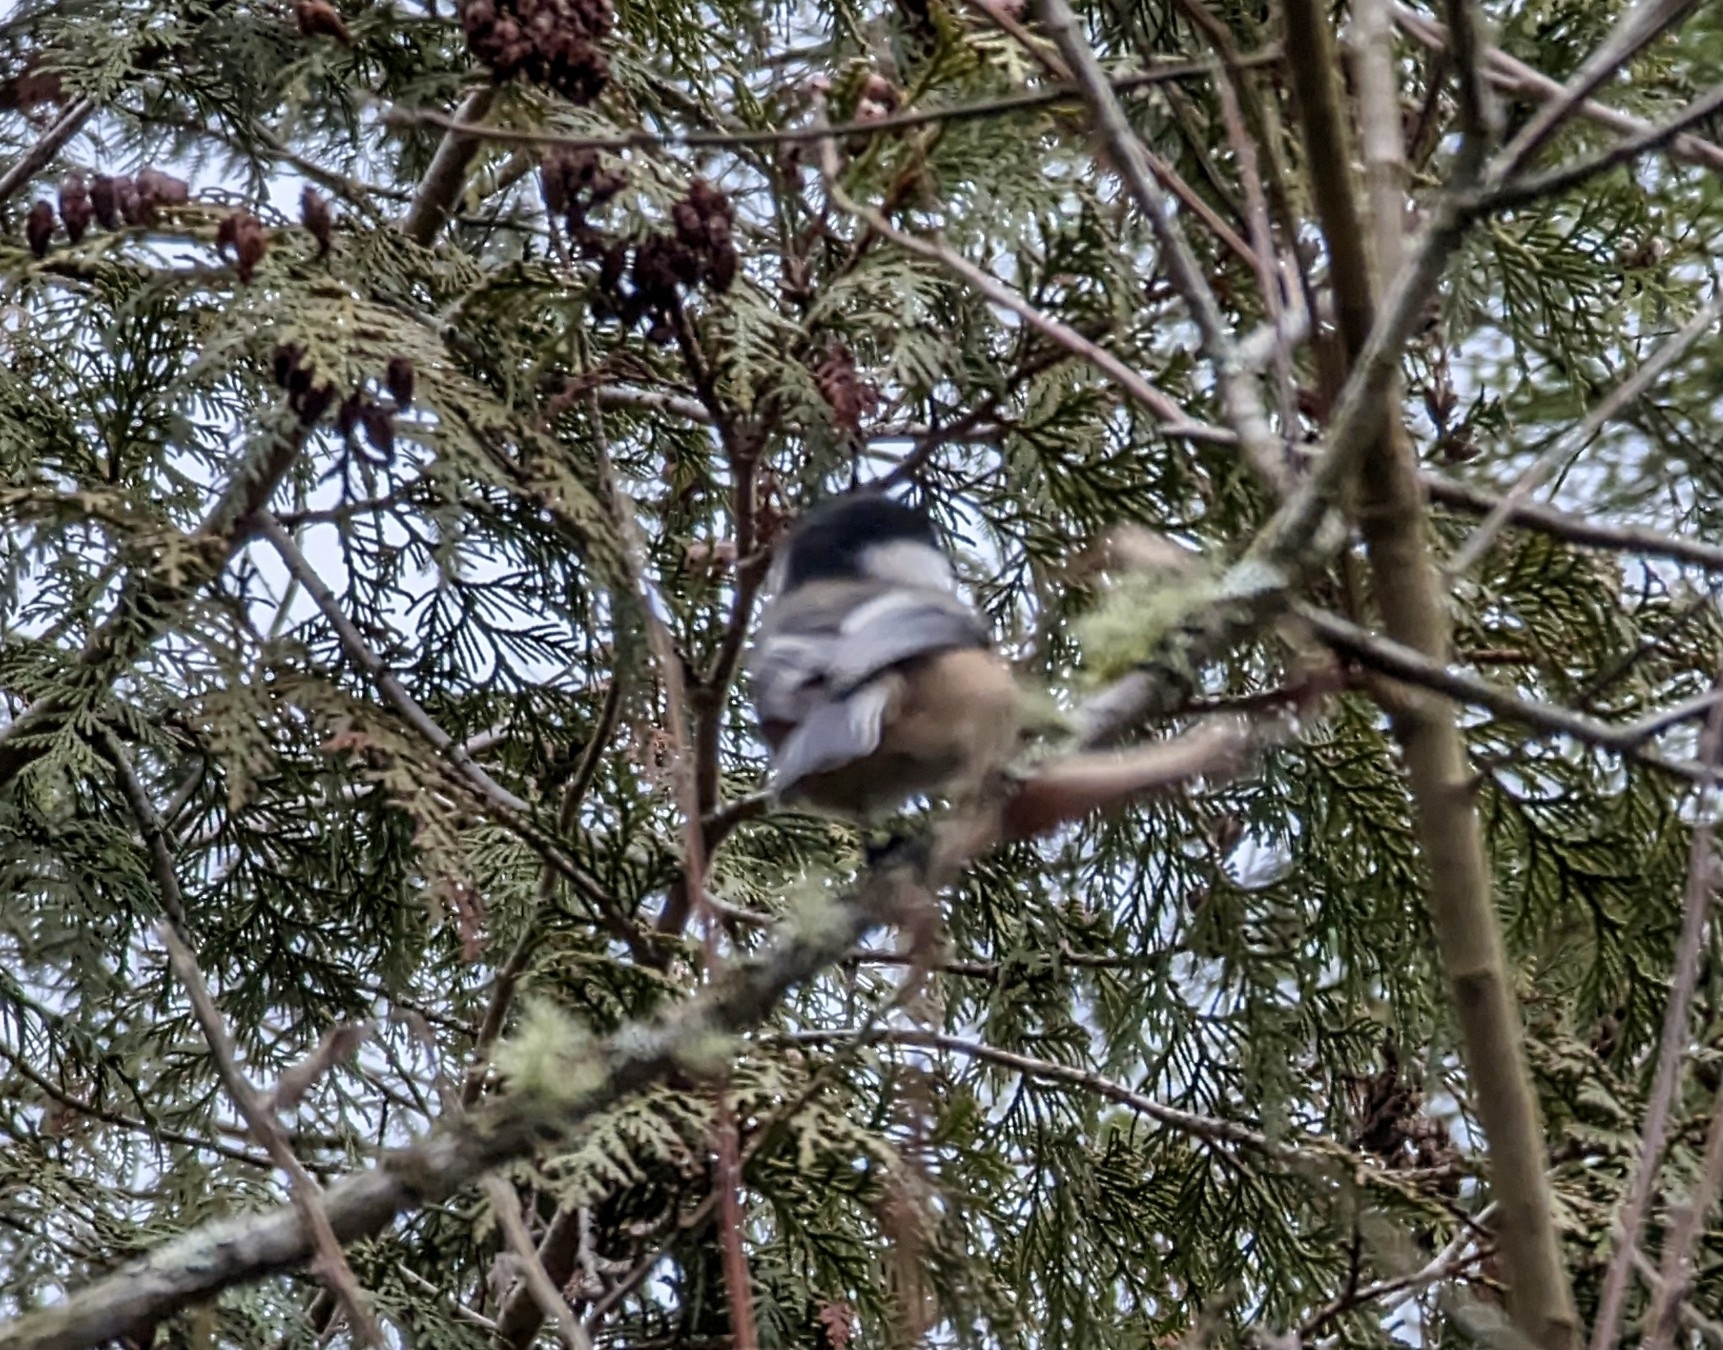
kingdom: Animalia
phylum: Chordata
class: Aves
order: Passeriformes
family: Paridae
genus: Poecile
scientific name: Poecile atricapillus
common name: Black-capped chickadee
